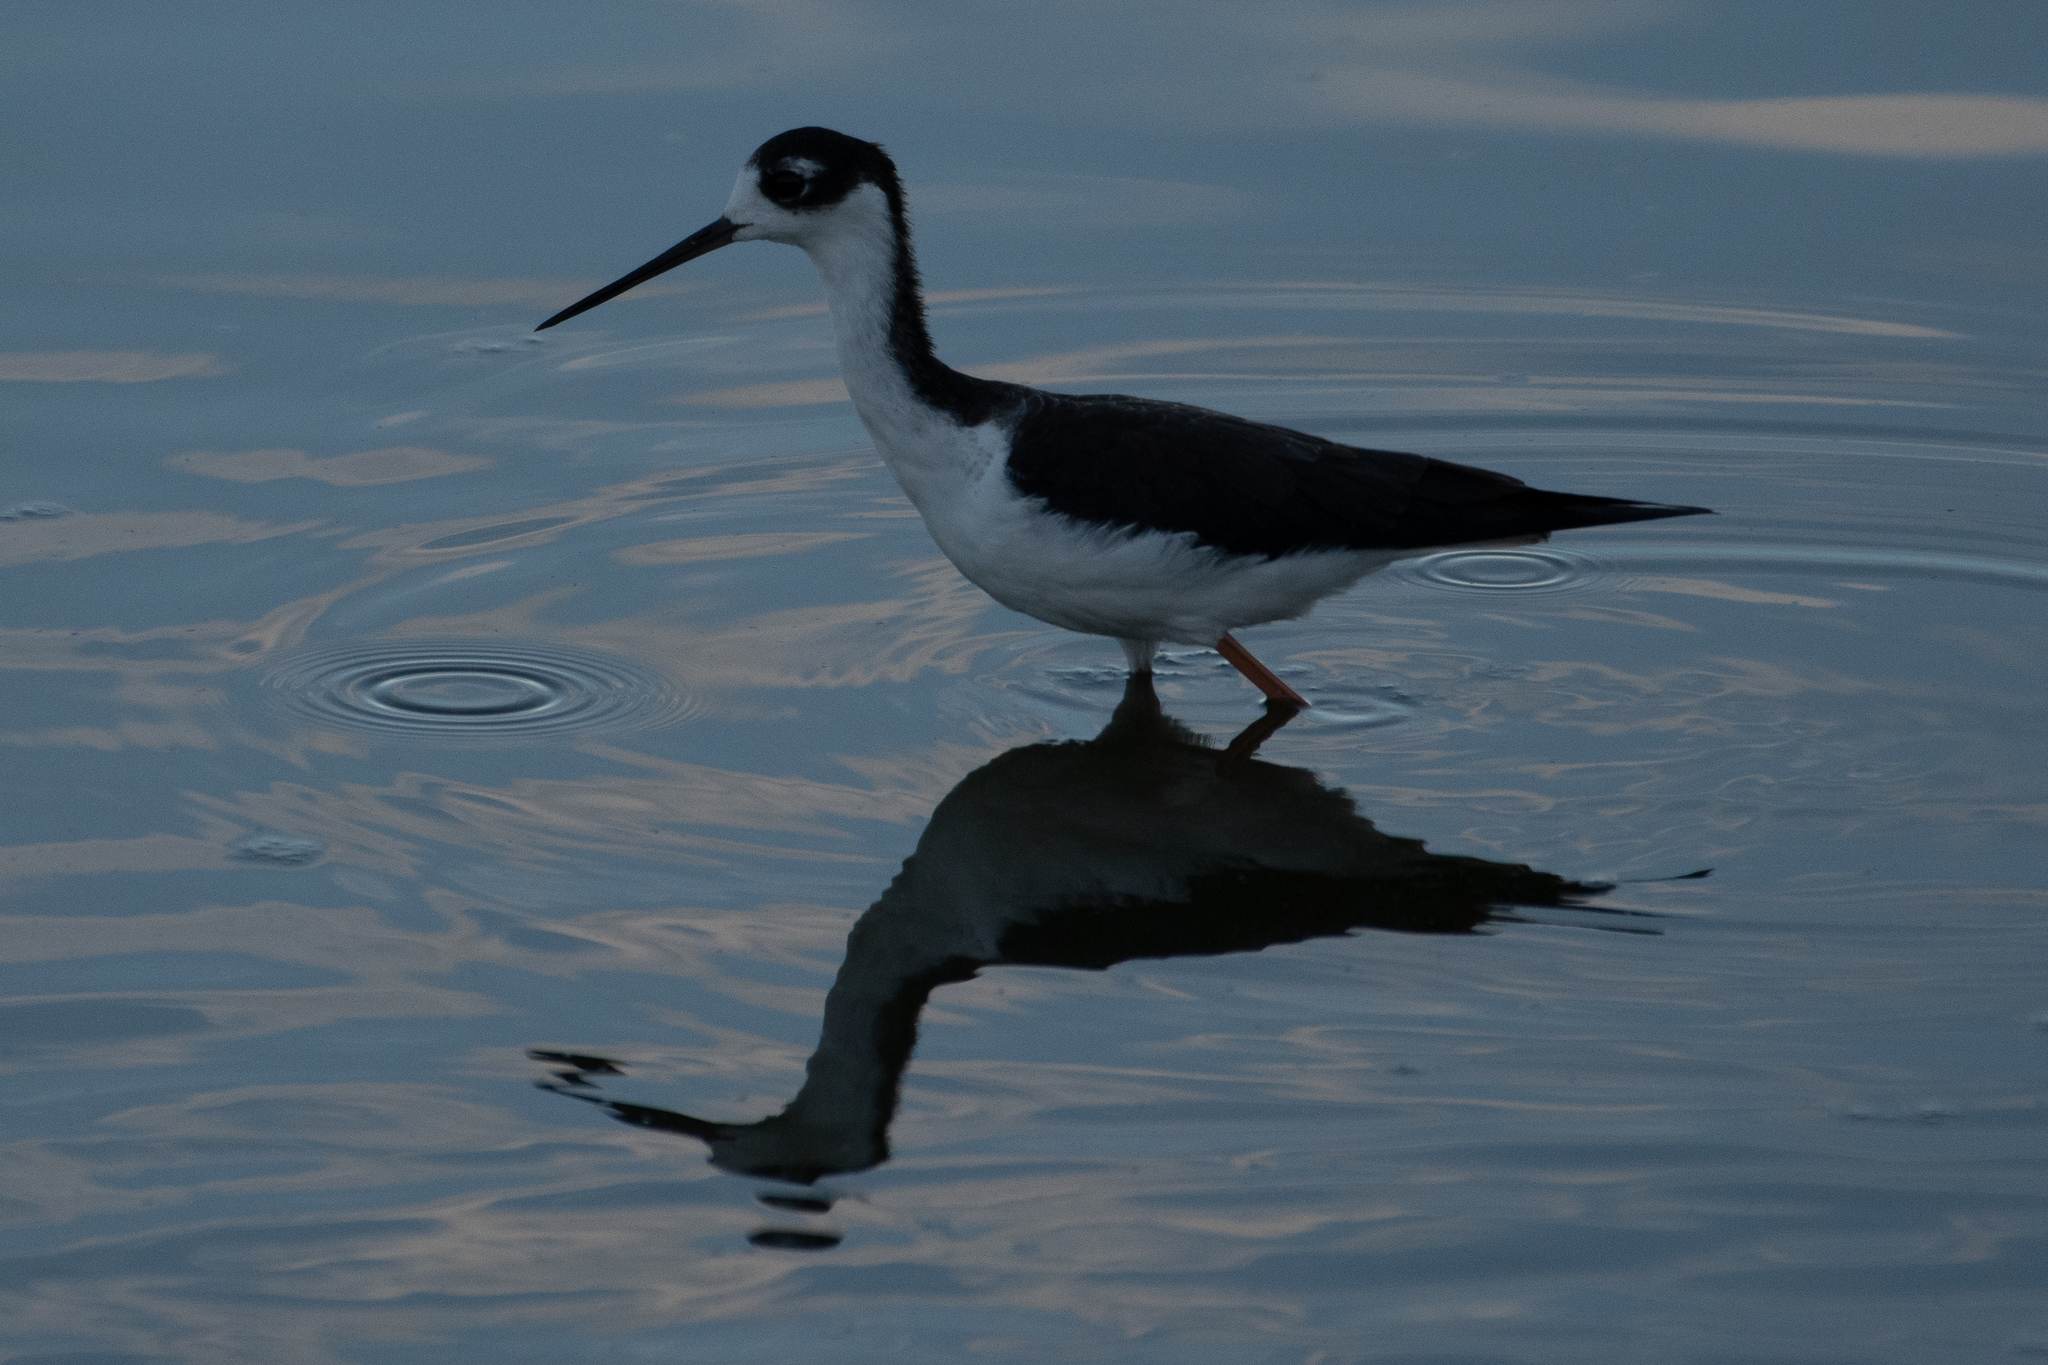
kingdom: Animalia
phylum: Chordata
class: Aves
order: Charadriiformes
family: Recurvirostridae
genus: Himantopus
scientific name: Himantopus mexicanus
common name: Black-necked stilt
